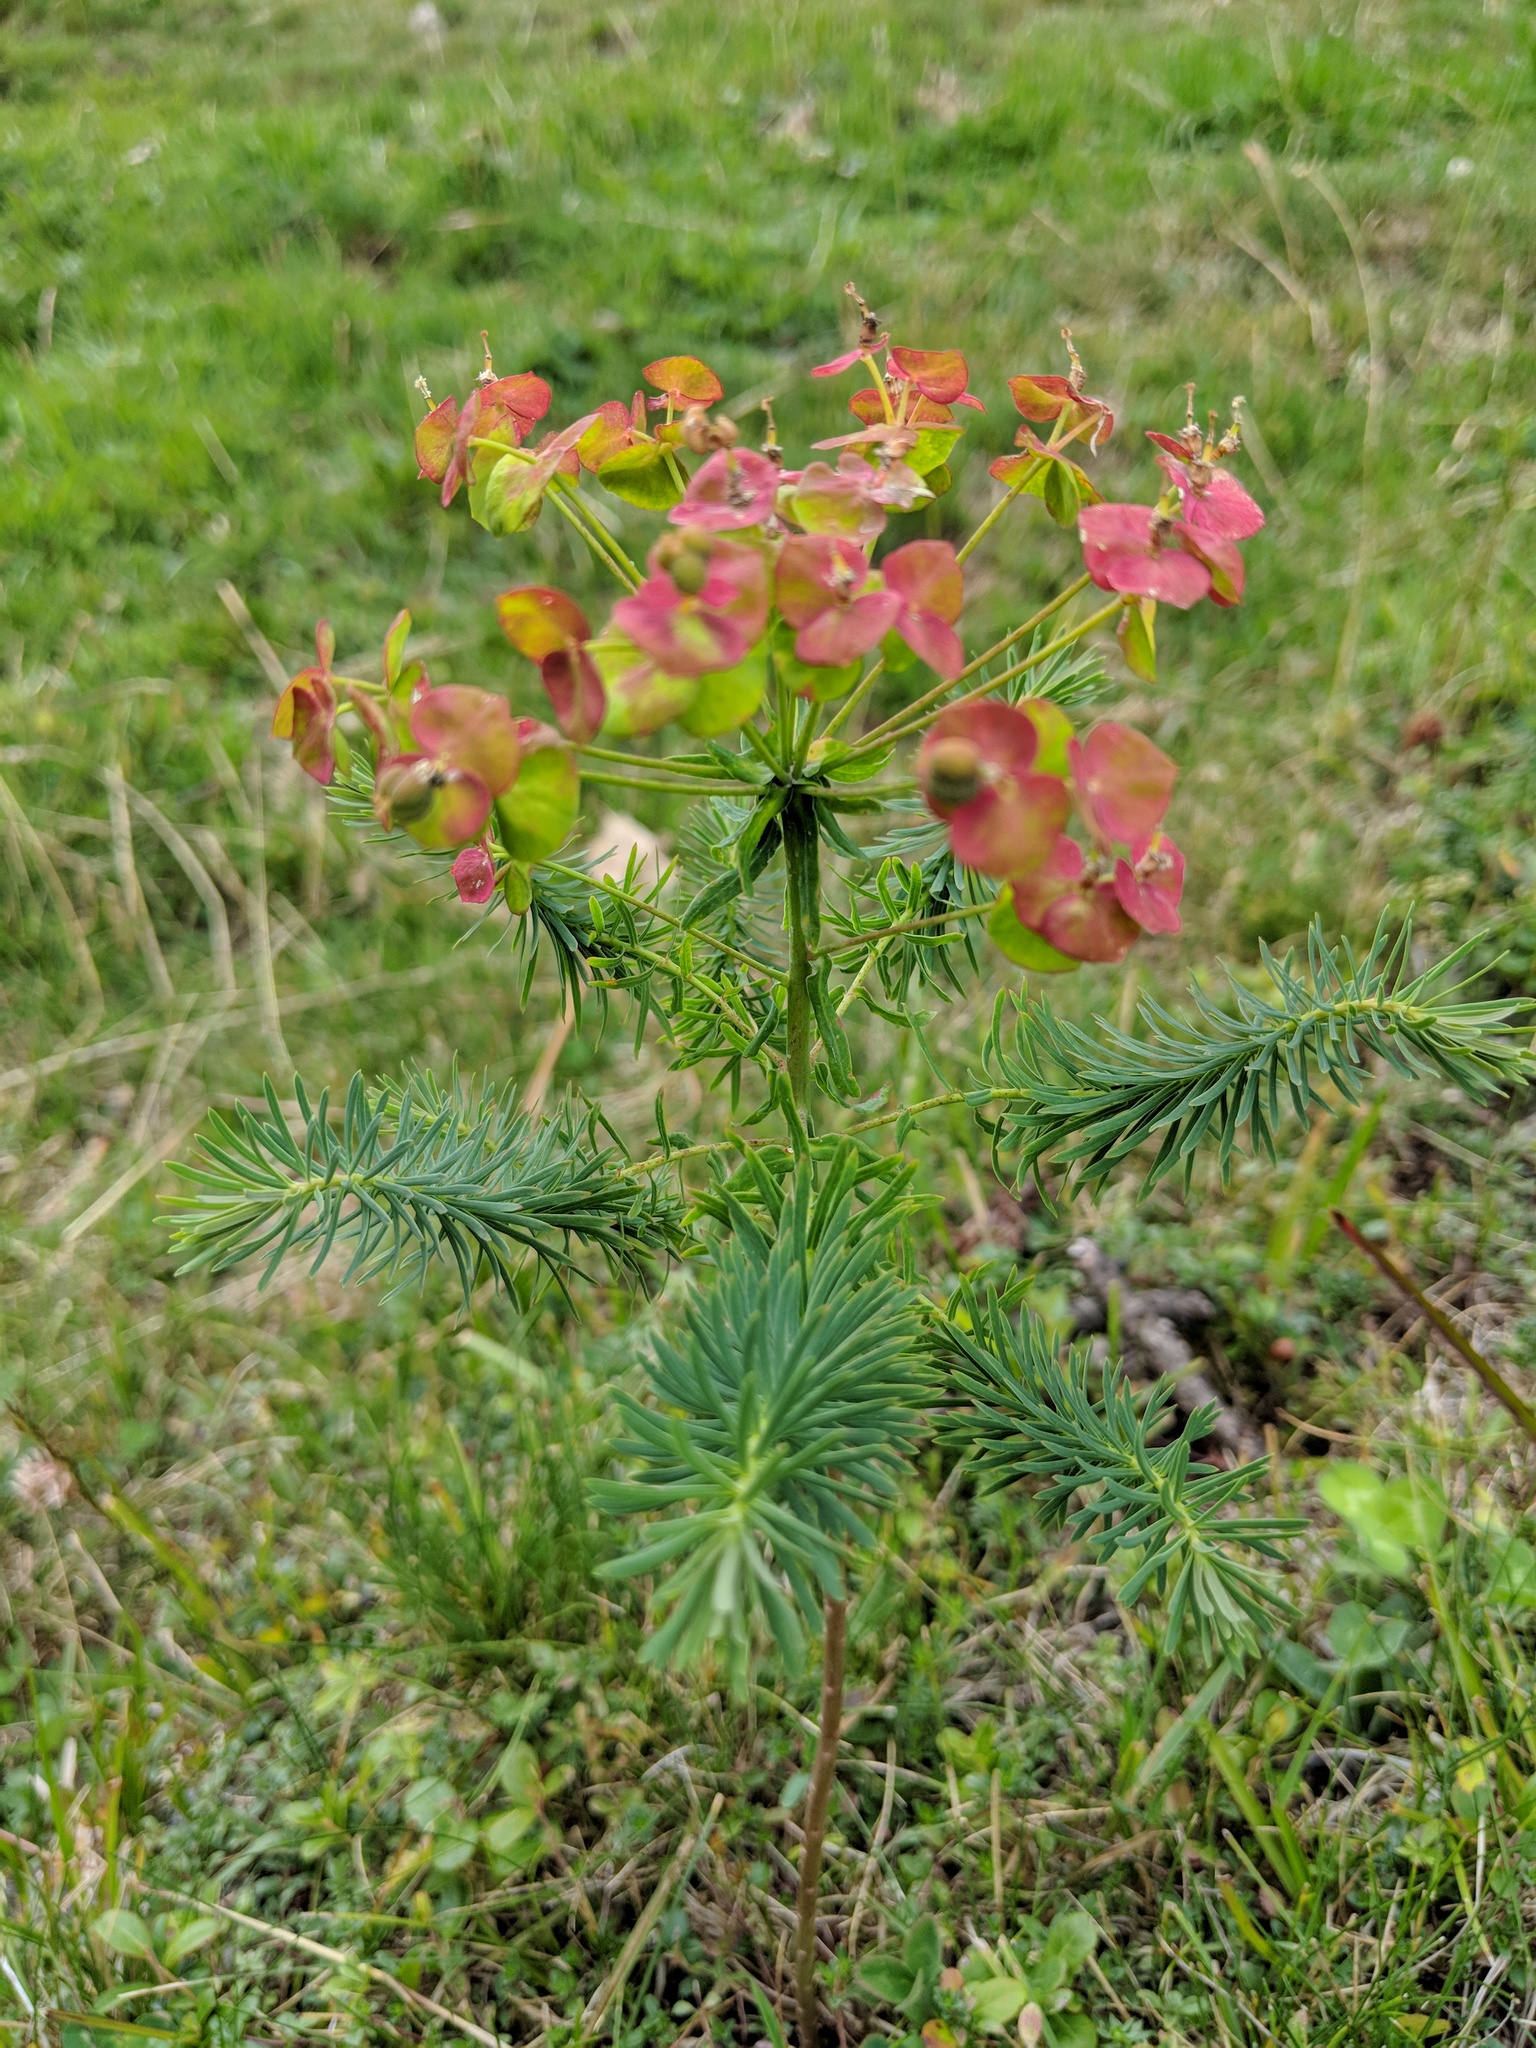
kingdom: Plantae
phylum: Tracheophyta
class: Magnoliopsida
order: Malpighiales
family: Euphorbiaceae
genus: Euphorbia
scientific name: Euphorbia cyparissias
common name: Cypress spurge
